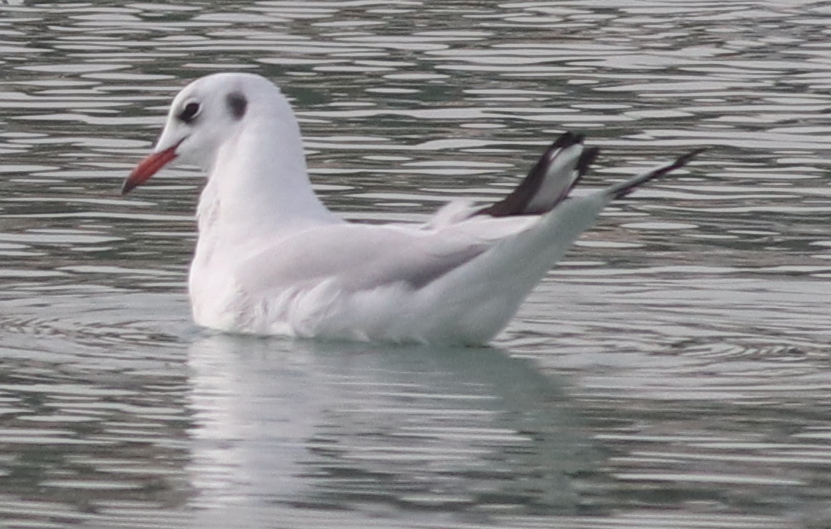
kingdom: Animalia
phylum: Chordata
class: Aves
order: Charadriiformes
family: Laridae
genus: Chroicocephalus
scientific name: Chroicocephalus ridibundus
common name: Black-headed gull
